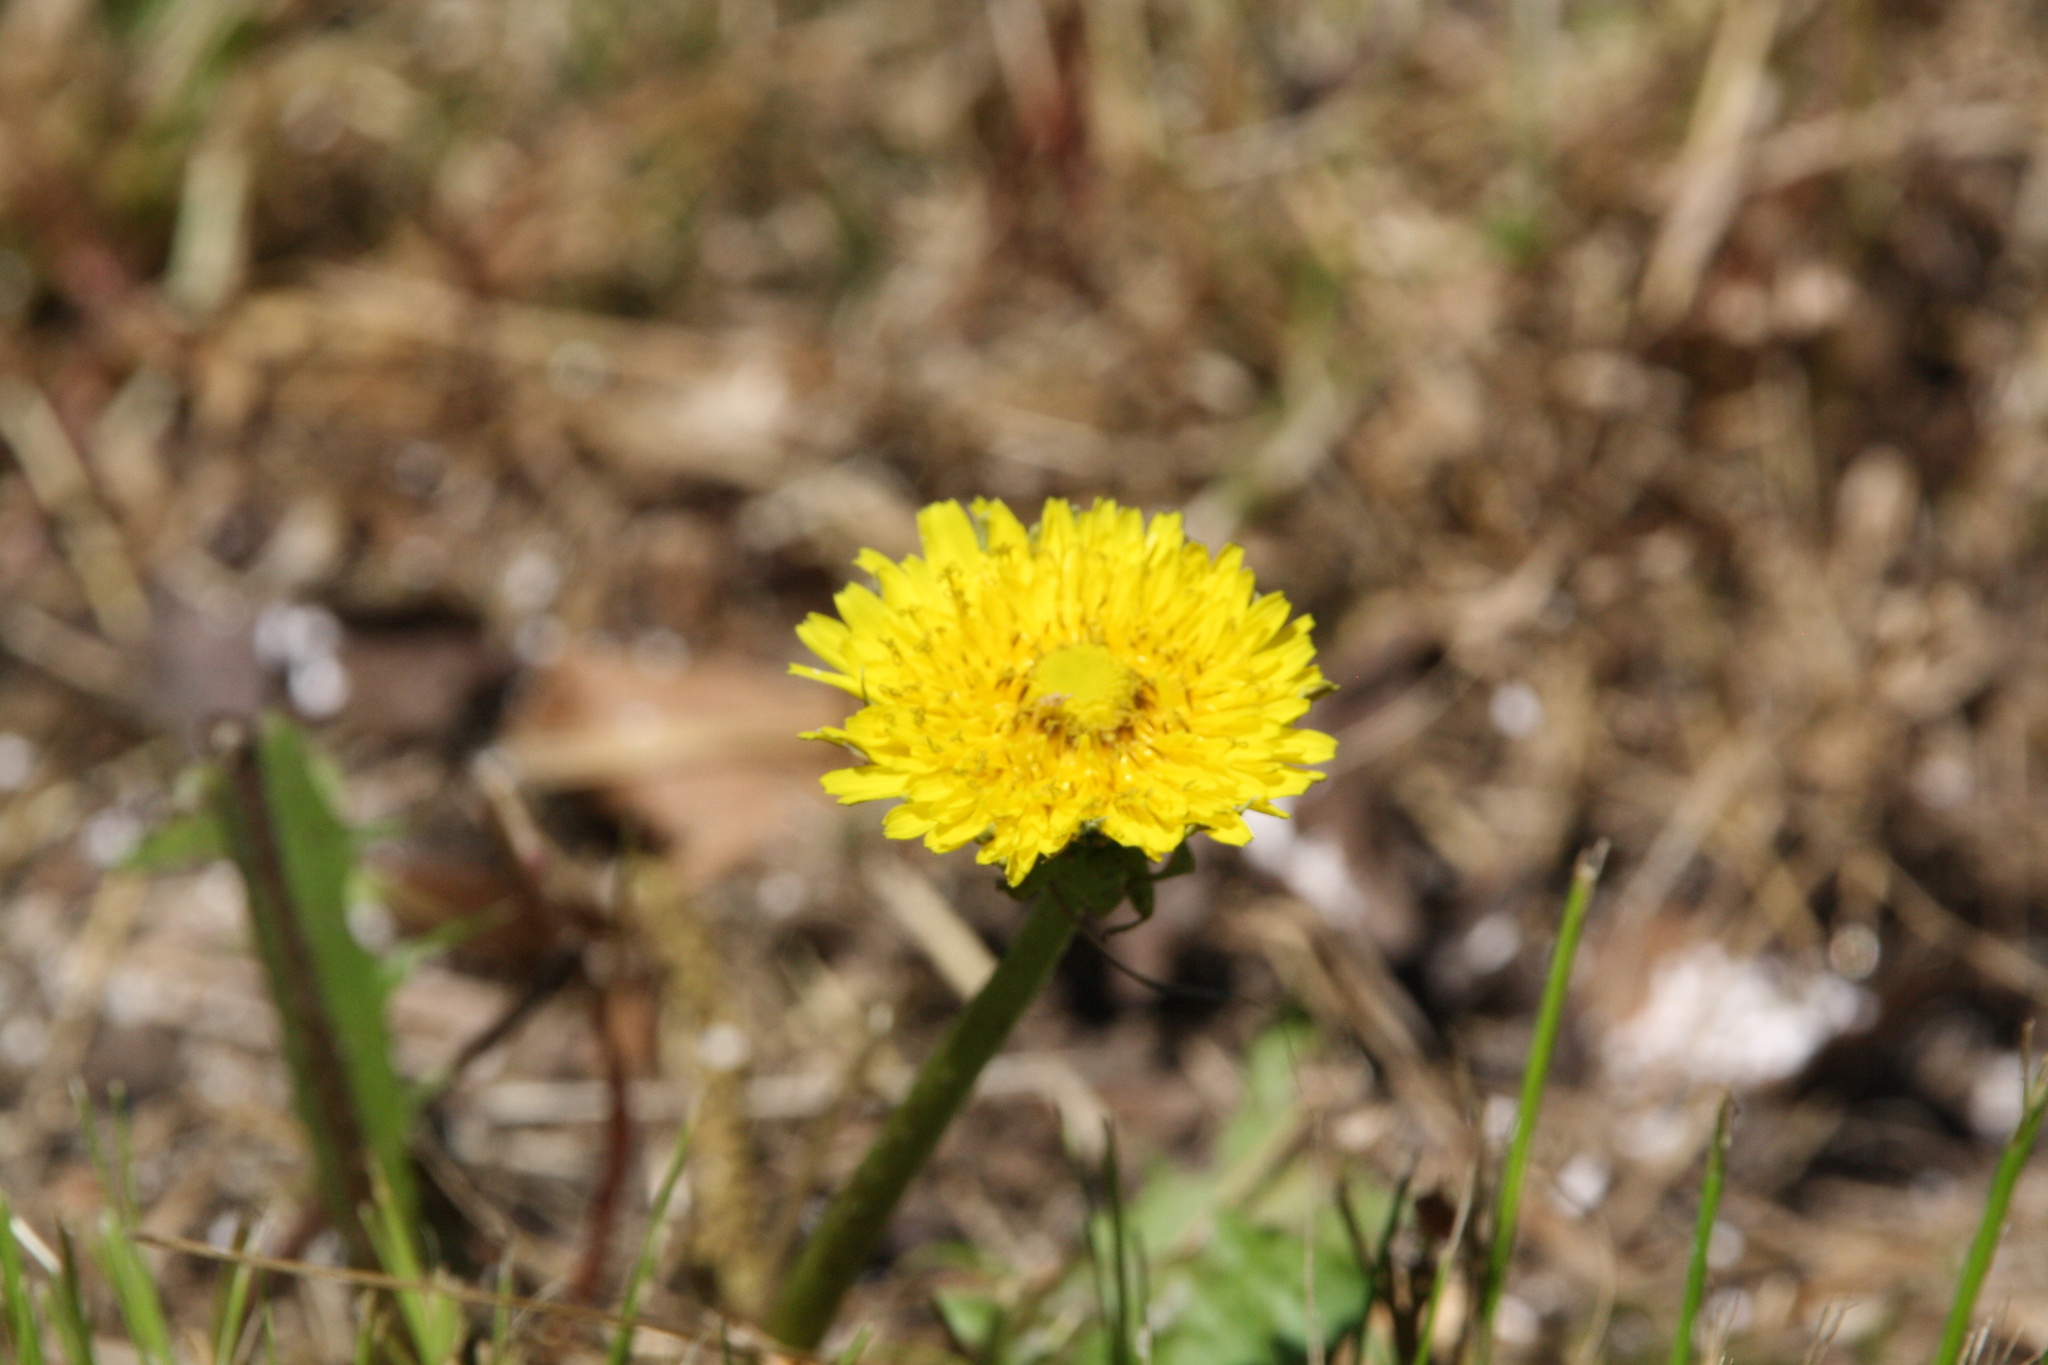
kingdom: Plantae
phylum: Tracheophyta
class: Magnoliopsida
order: Asterales
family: Asteraceae
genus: Taraxacum
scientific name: Taraxacum officinale
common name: Common dandelion
